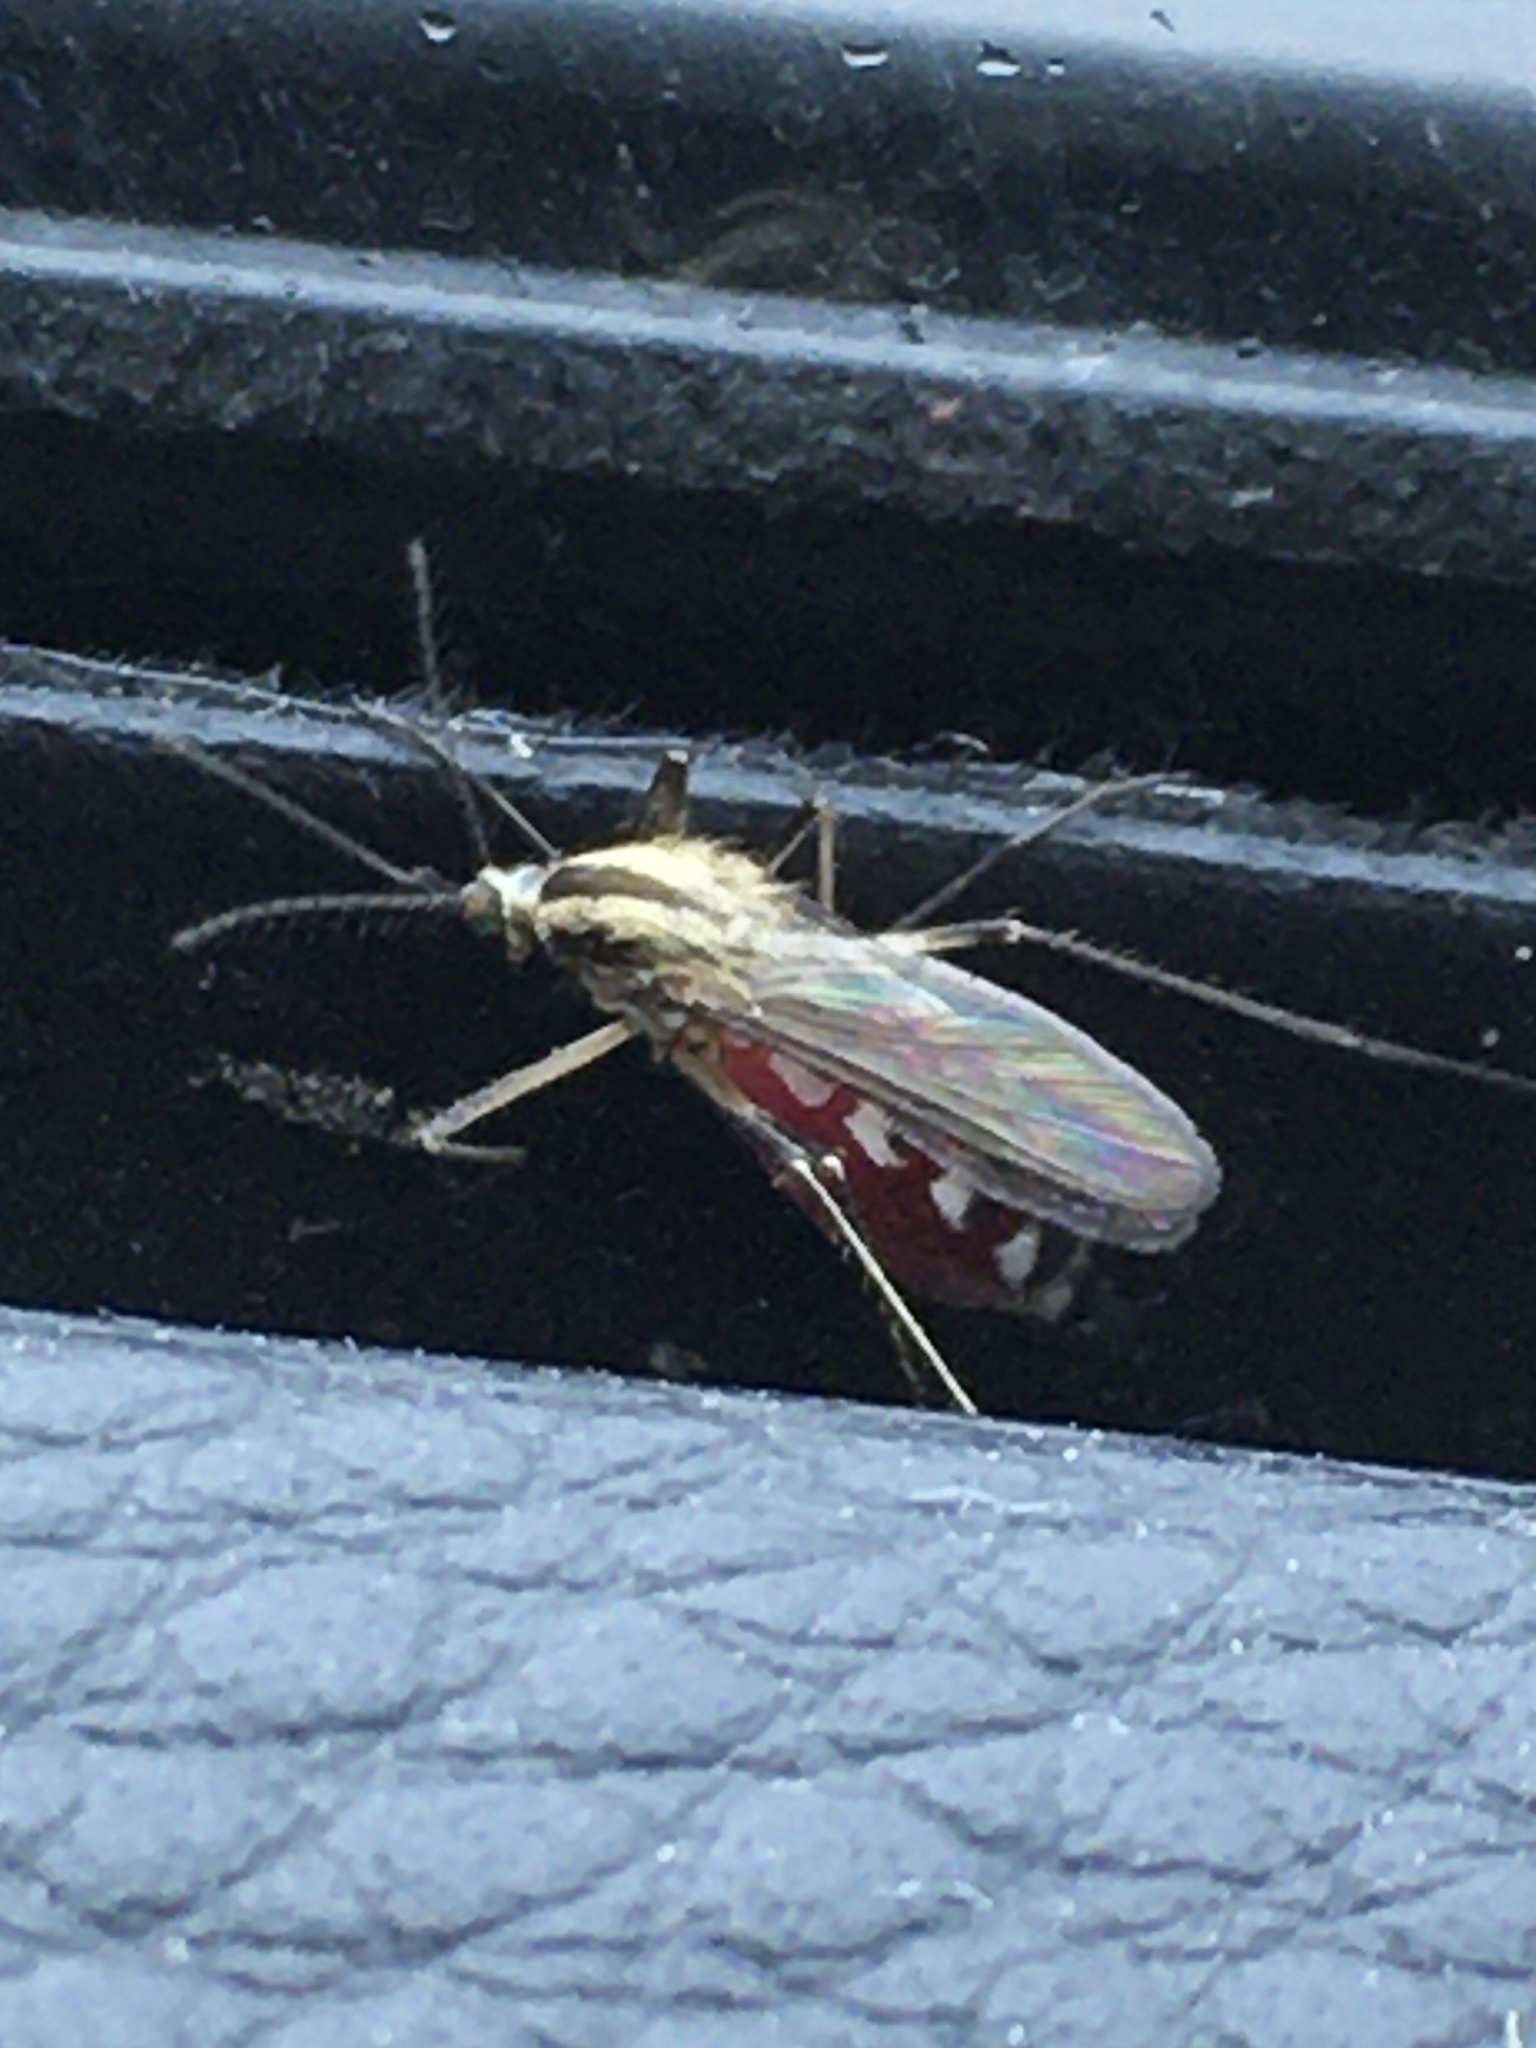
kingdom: Animalia
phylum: Arthropoda
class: Insecta
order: Diptera
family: Culicidae
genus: Aedes
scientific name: Aedes trivittatus
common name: Plains floodwater mosquito
